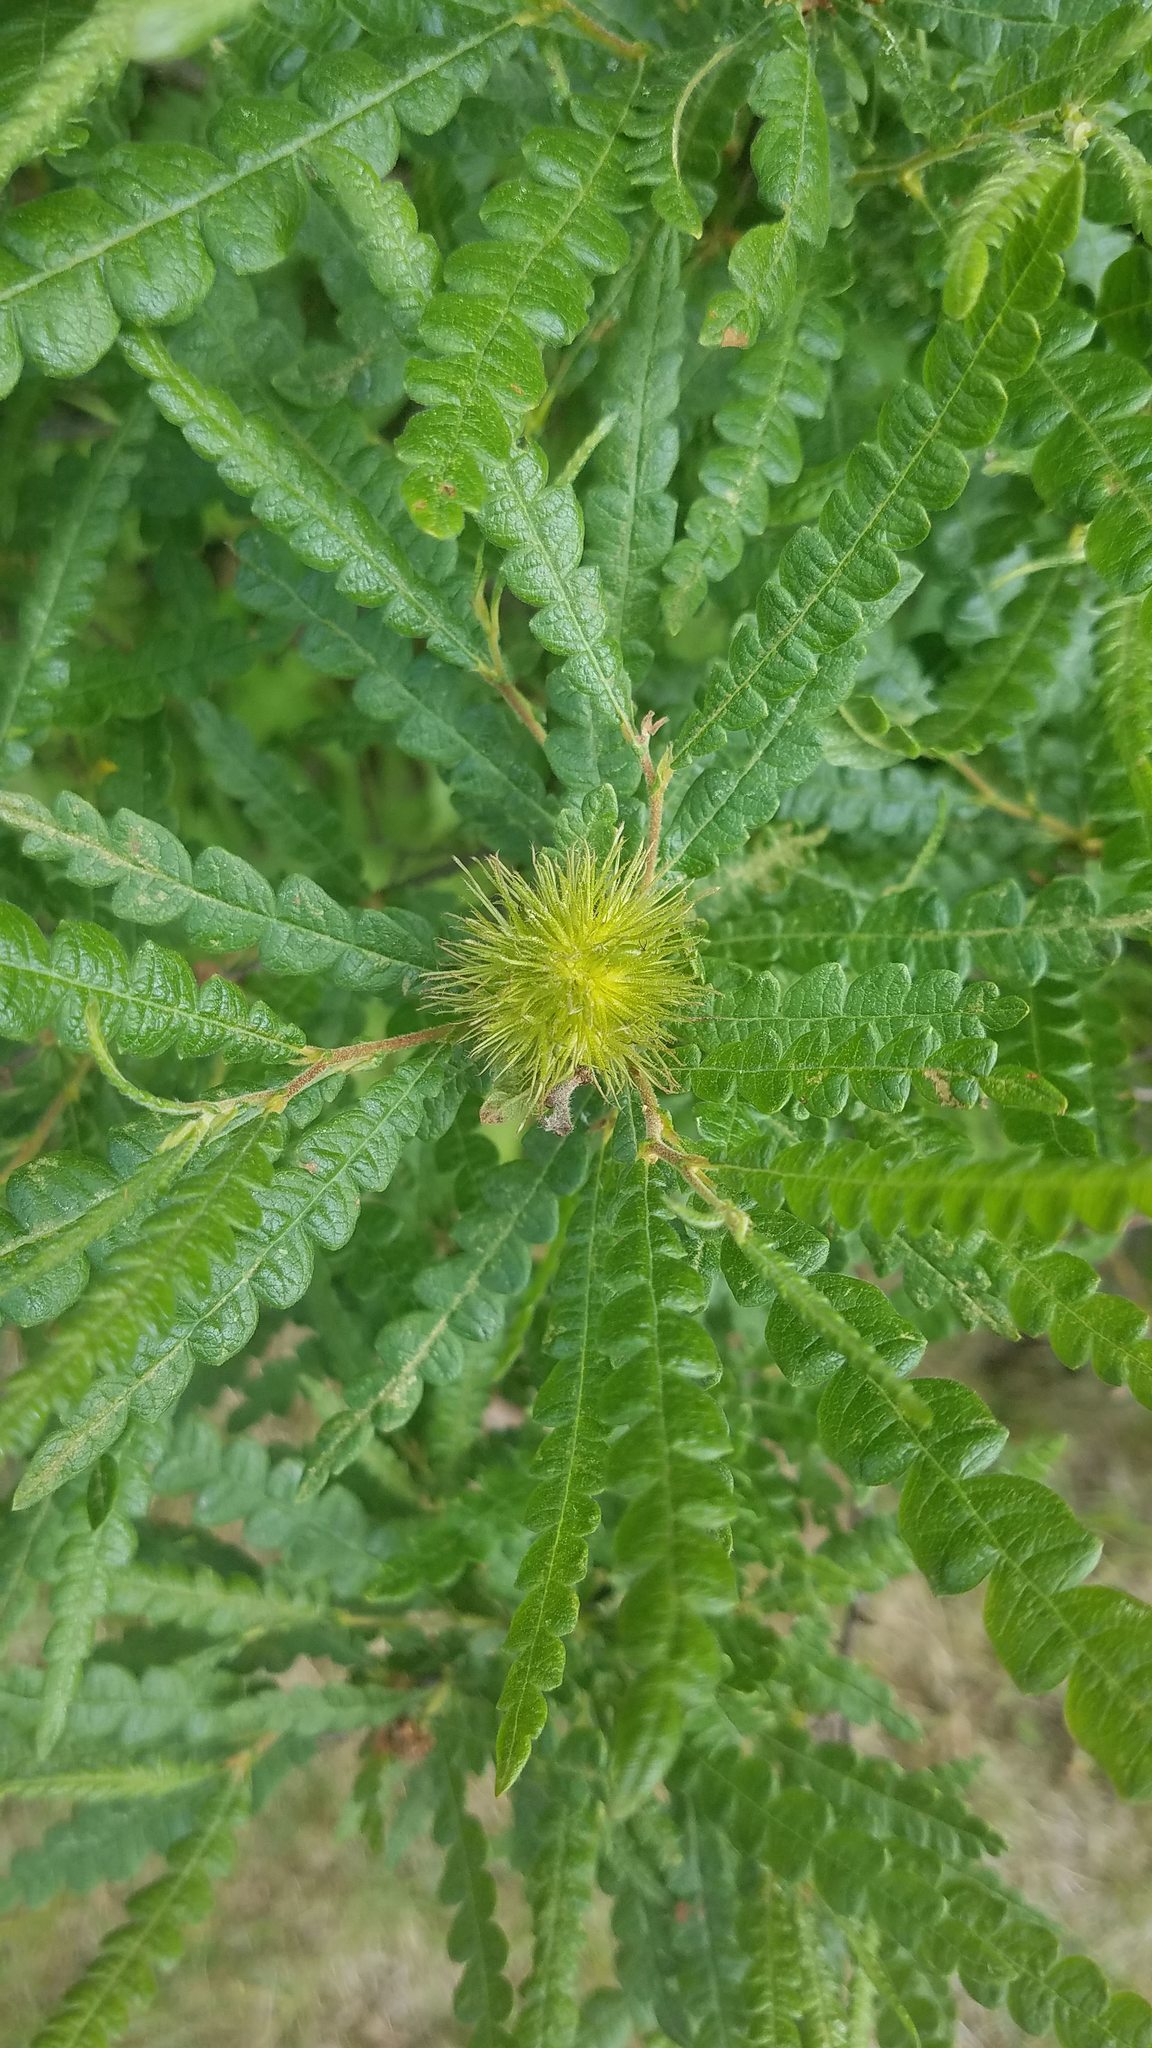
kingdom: Plantae
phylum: Tracheophyta
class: Magnoliopsida
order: Fagales
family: Myricaceae
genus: Comptonia
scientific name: Comptonia peregrina
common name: Sweet-fern
